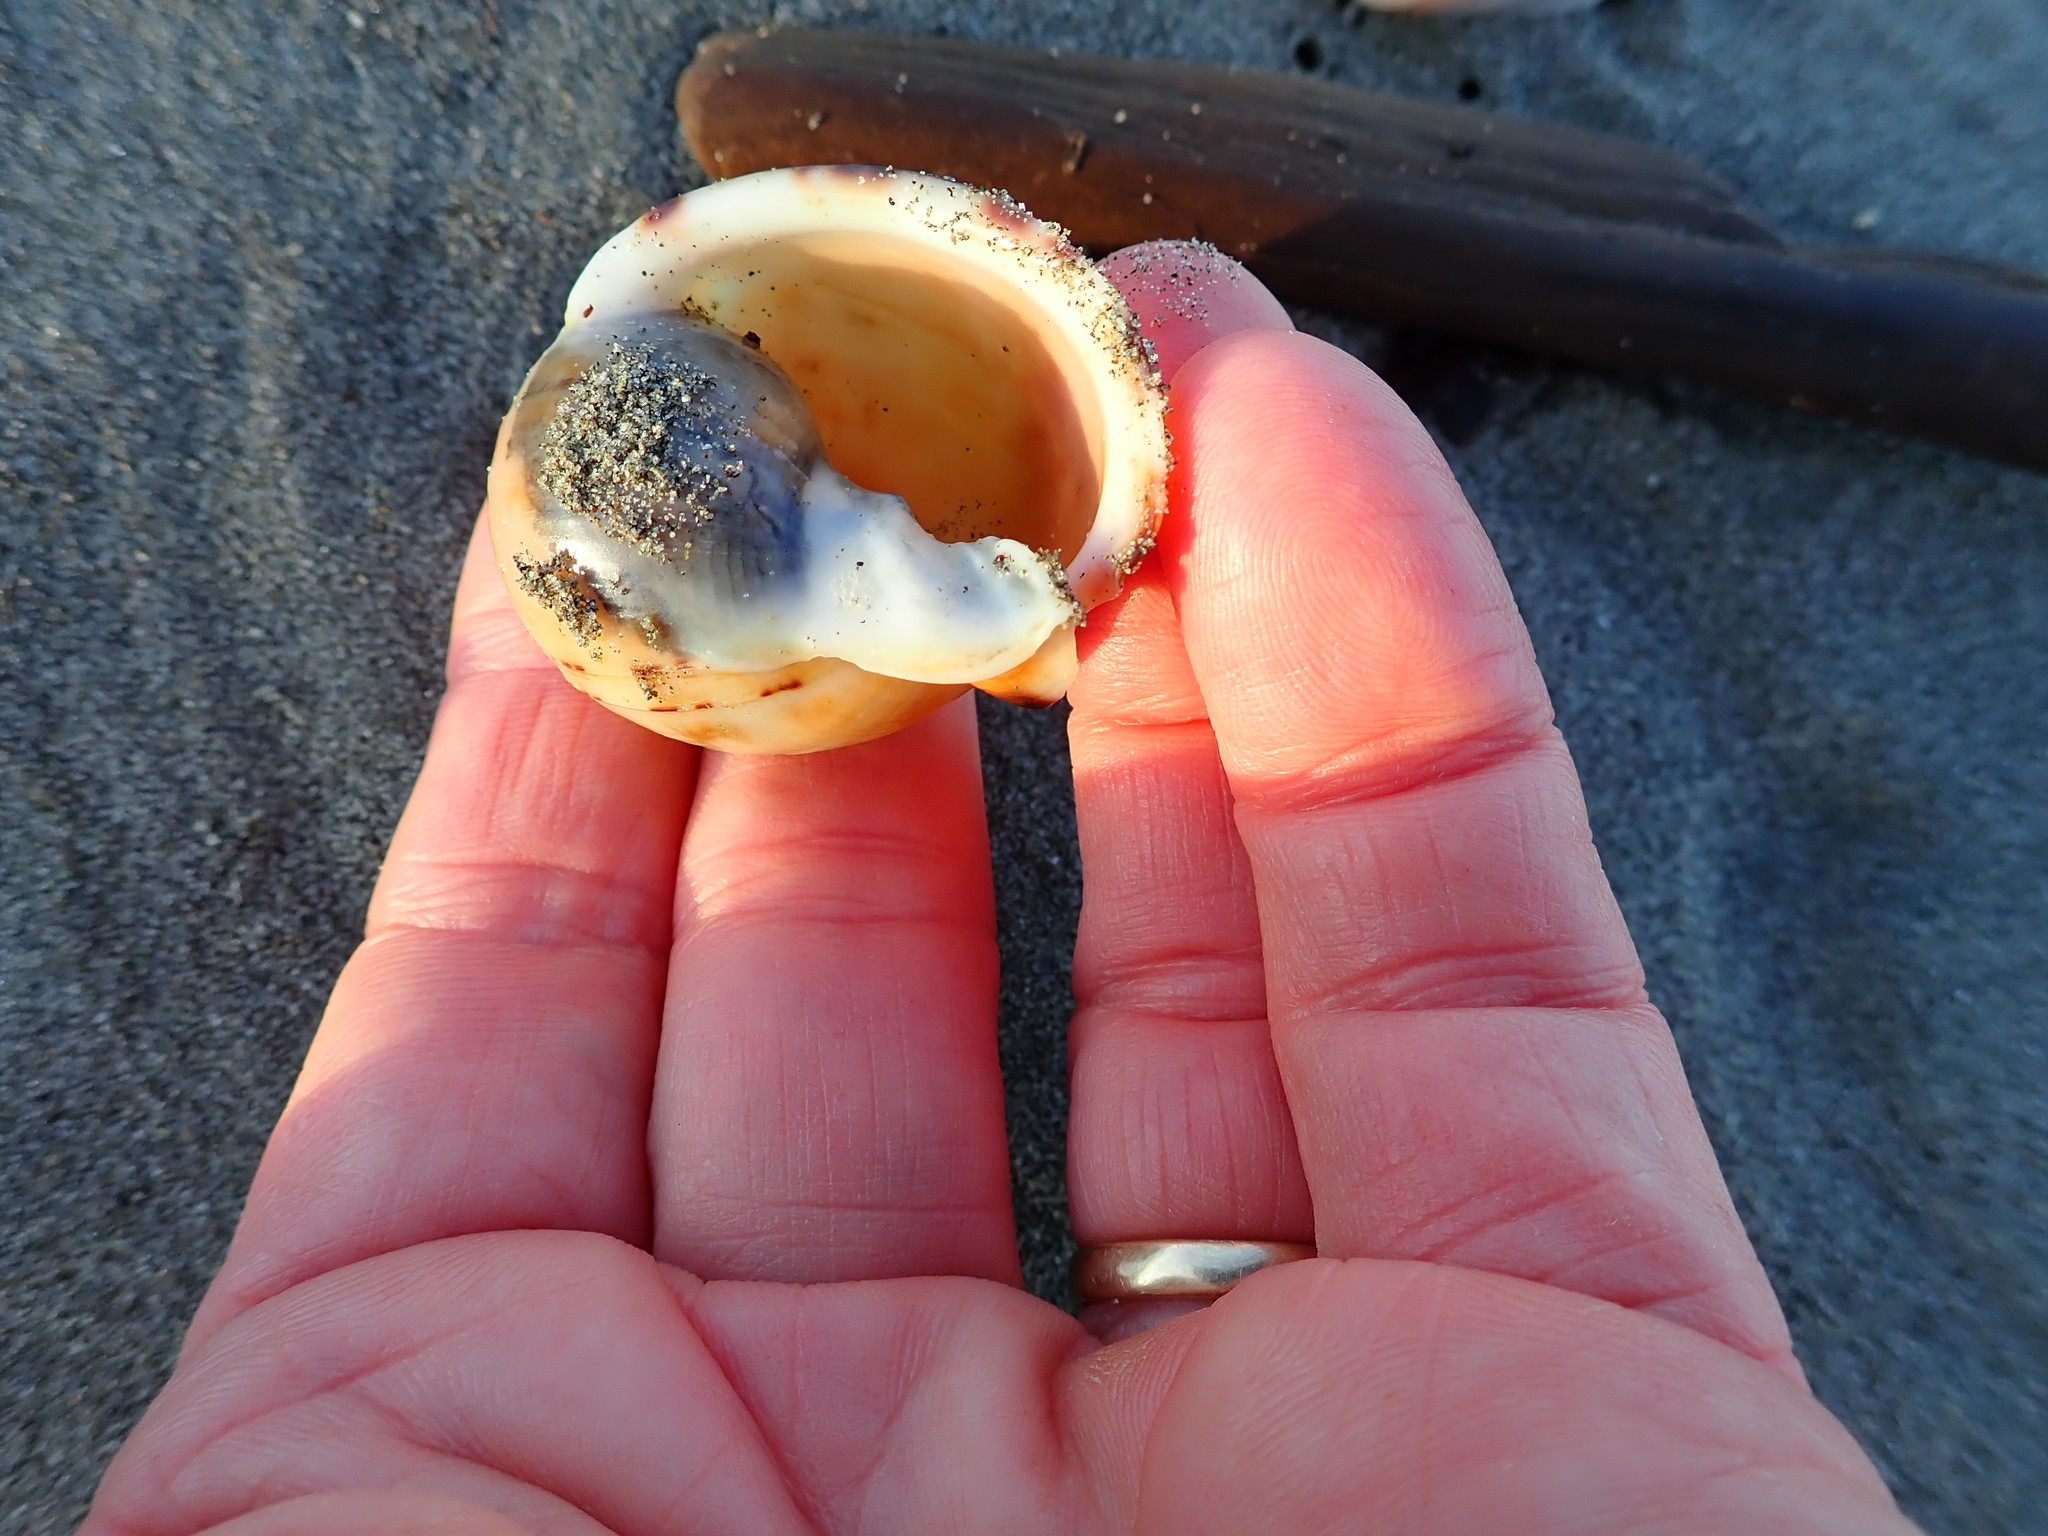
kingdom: Animalia
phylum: Mollusca
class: Gastropoda
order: Littorinimorpha
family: Cassidae
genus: Semicassis
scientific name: Semicassis pyrum
